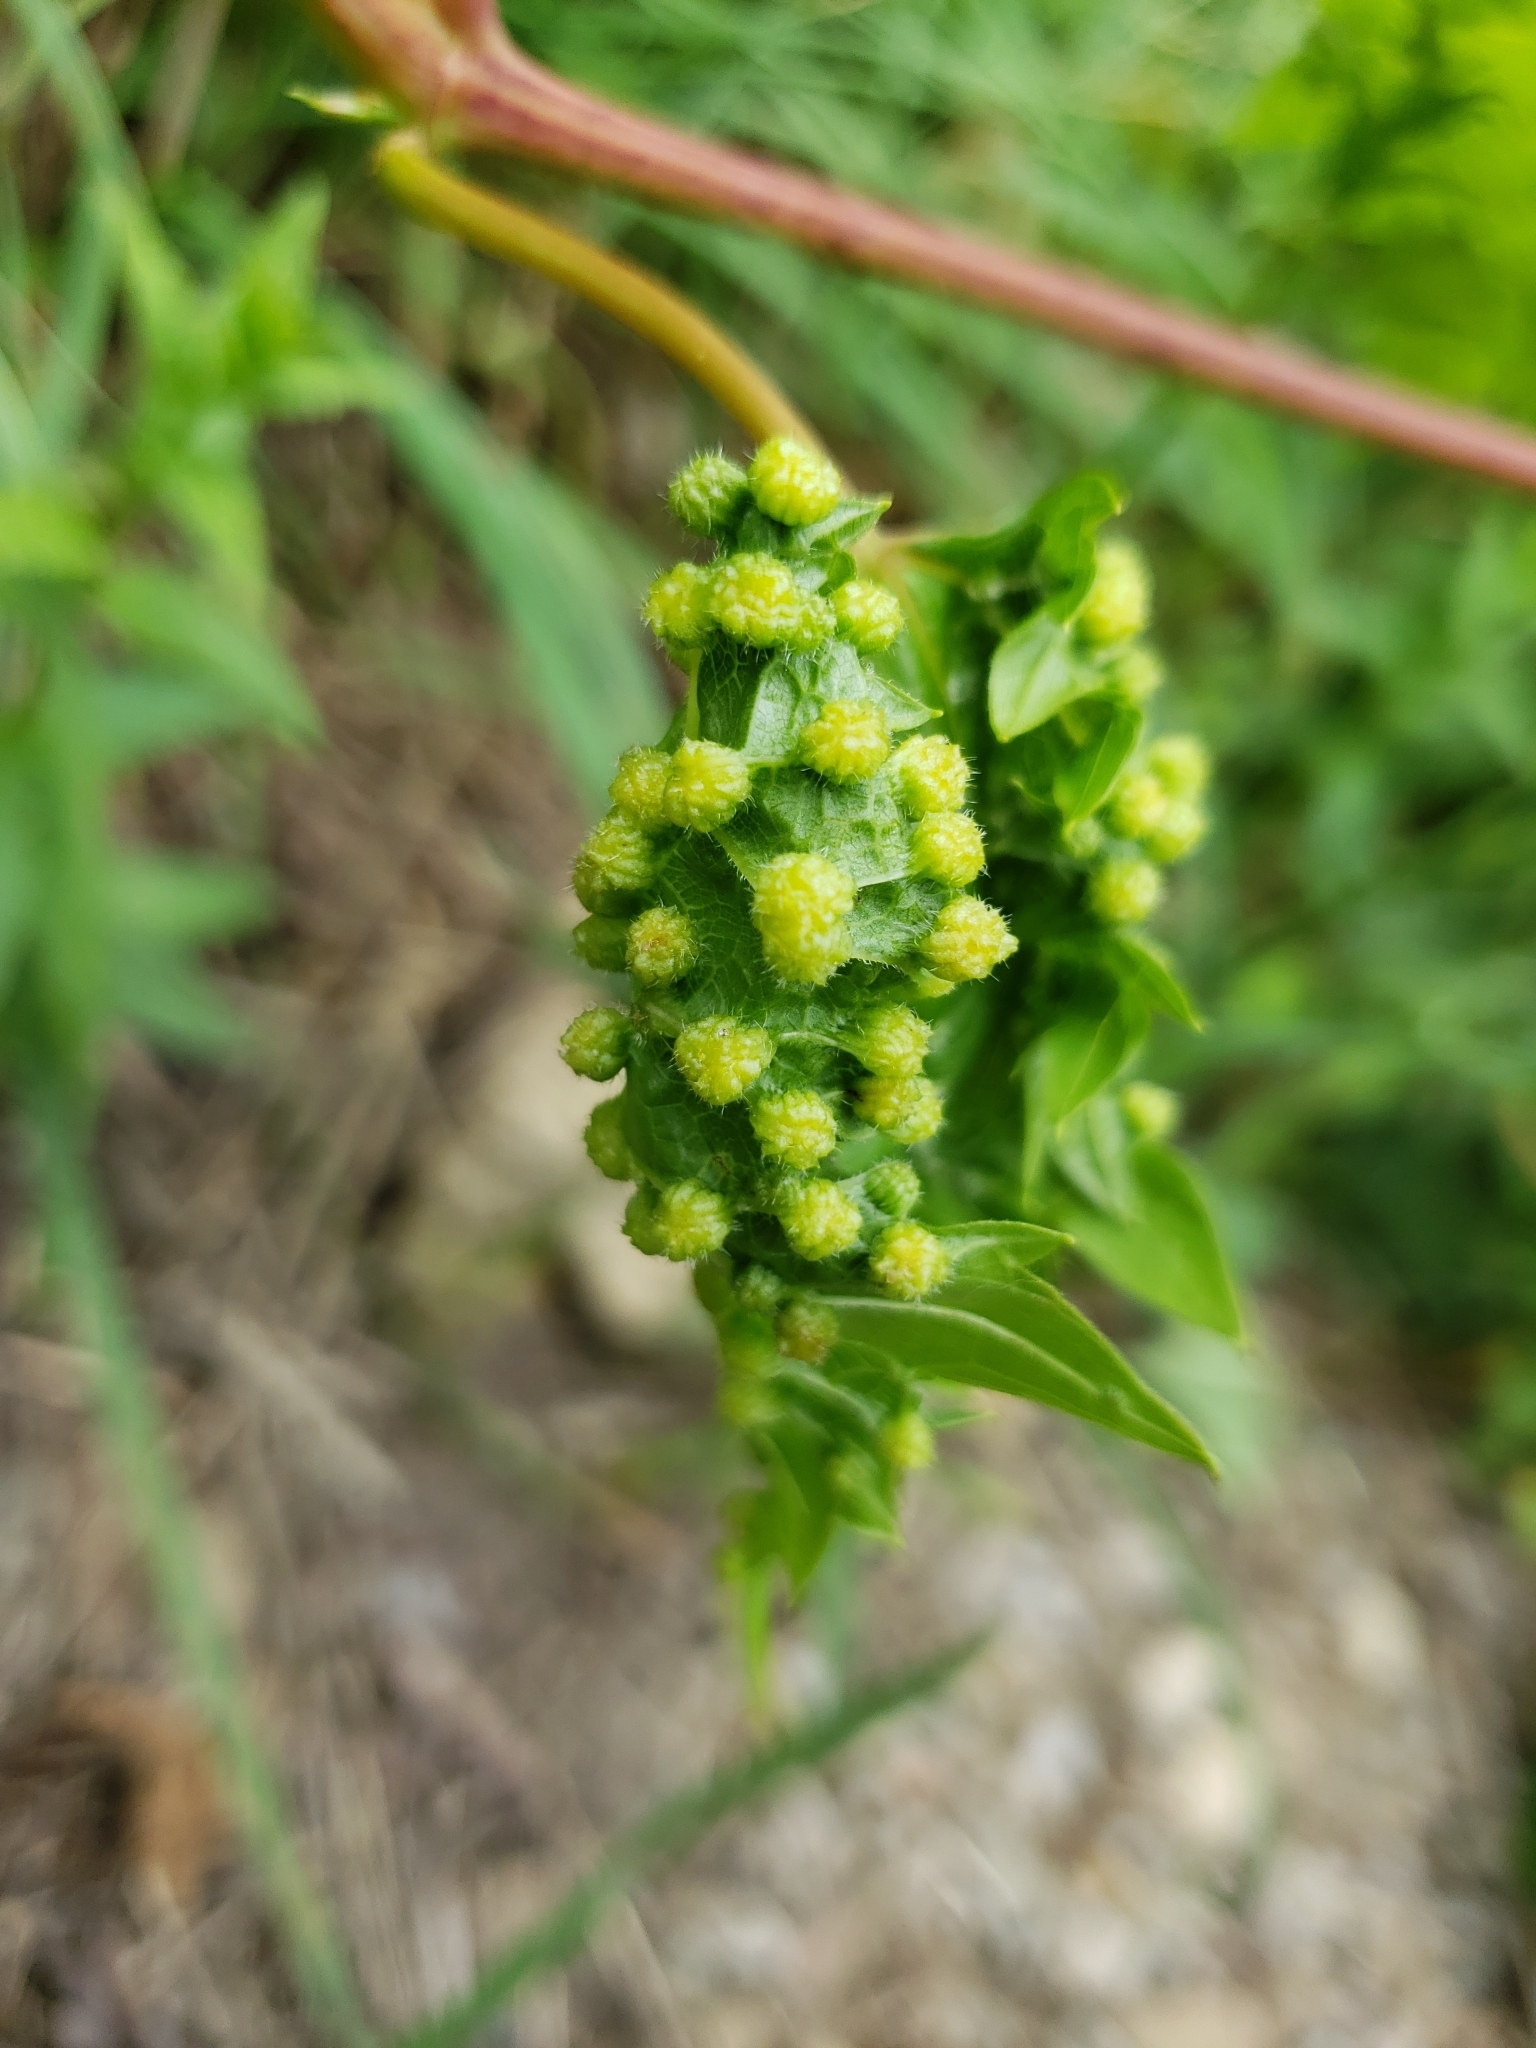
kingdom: Animalia
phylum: Arthropoda
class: Insecta
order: Hemiptera
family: Phylloxeridae
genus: Daktulosphaira
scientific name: Daktulosphaira vitifoliae
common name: Grape phylloxera
